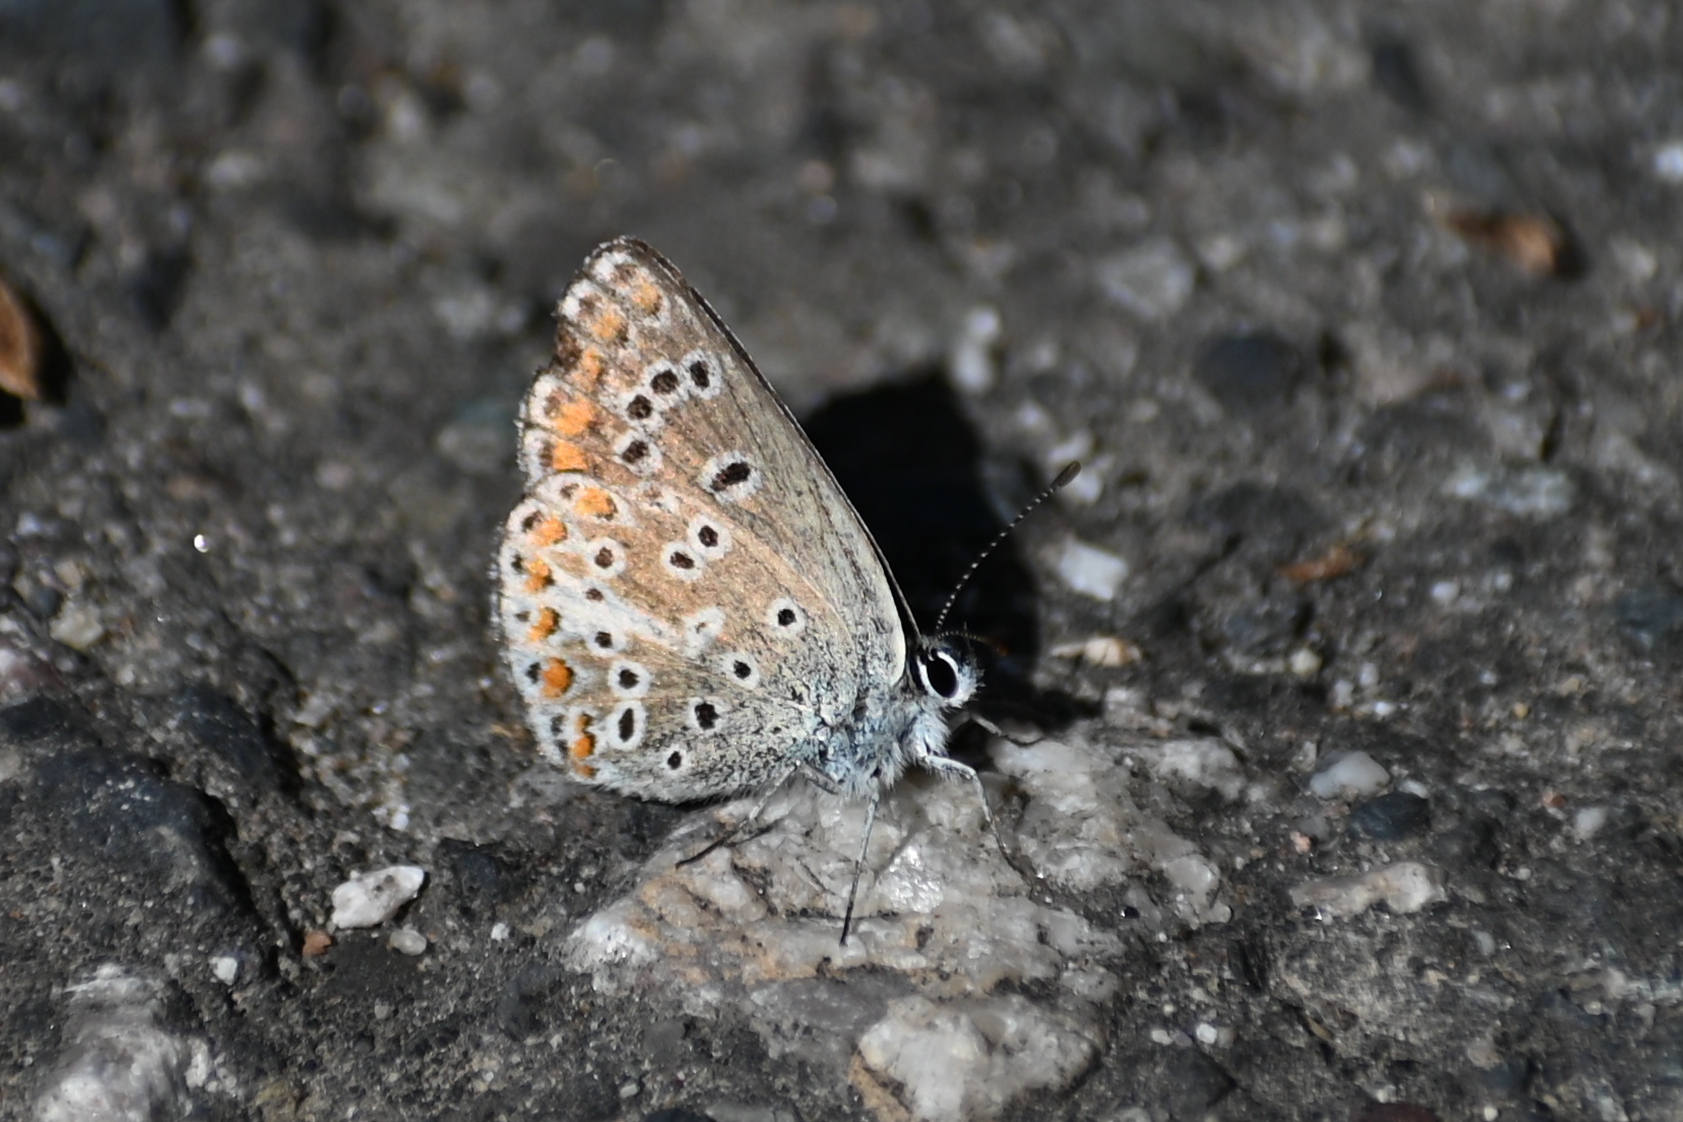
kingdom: Animalia
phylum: Arthropoda
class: Insecta
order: Lepidoptera
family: Lycaenidae
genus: Aricia
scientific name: Aricia agestis
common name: Brown argus
